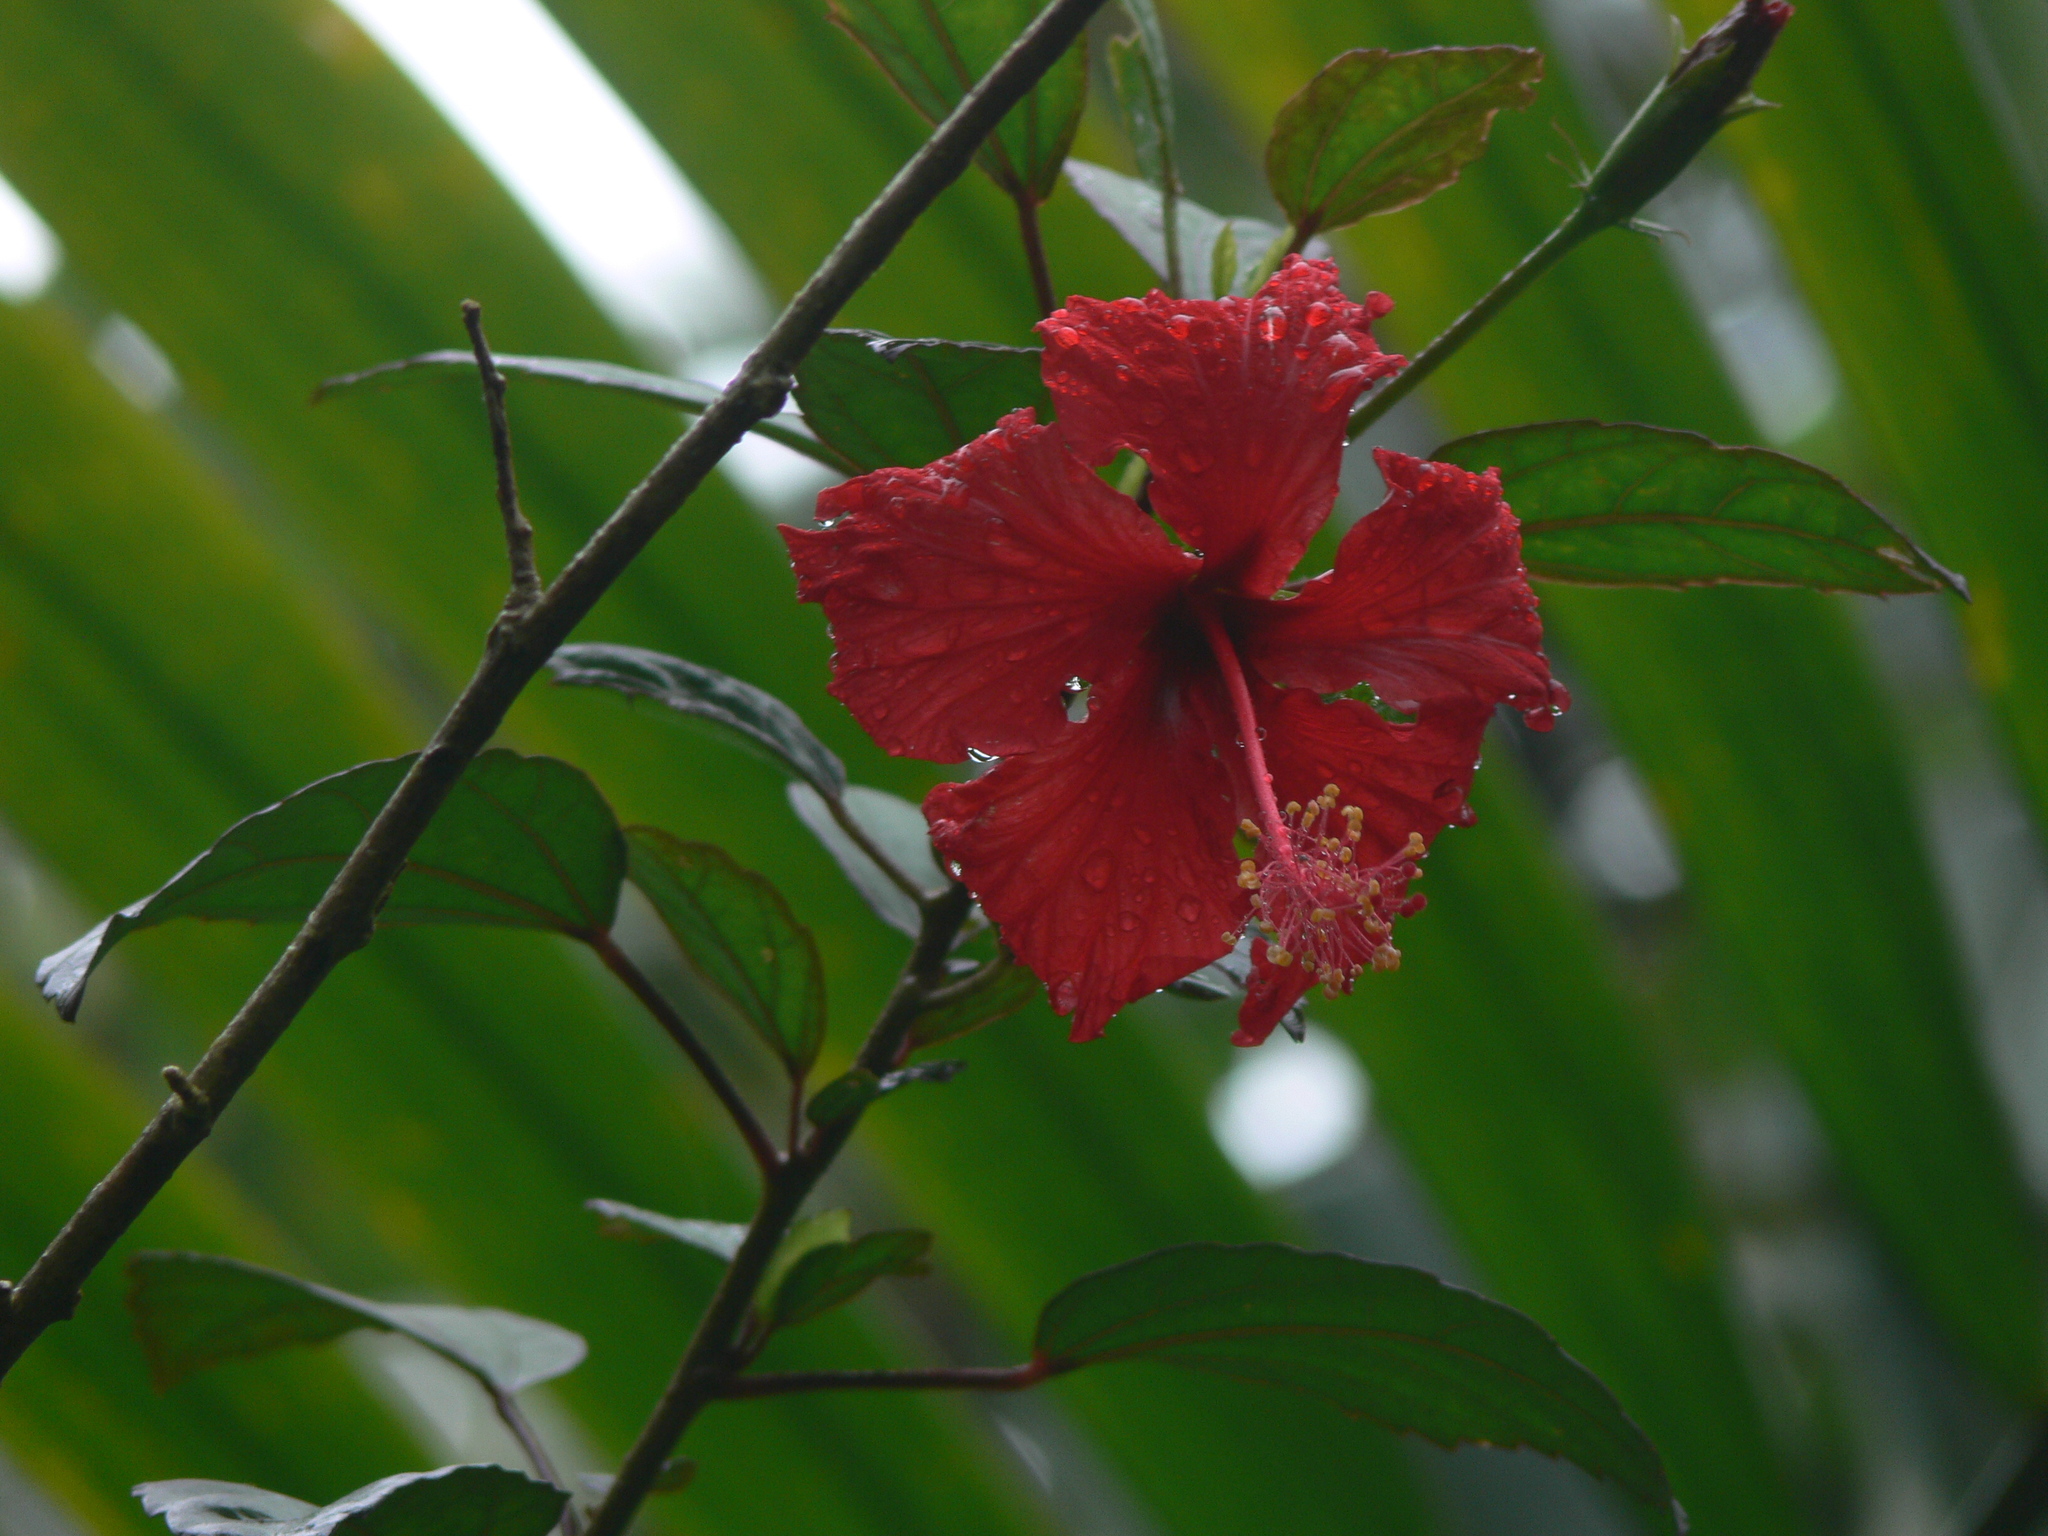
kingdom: Plantae
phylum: Tracheophyta
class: Magnoliopsida
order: Malvales
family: Malvaceae
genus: Hibiscus
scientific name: Hibiscus archeri
